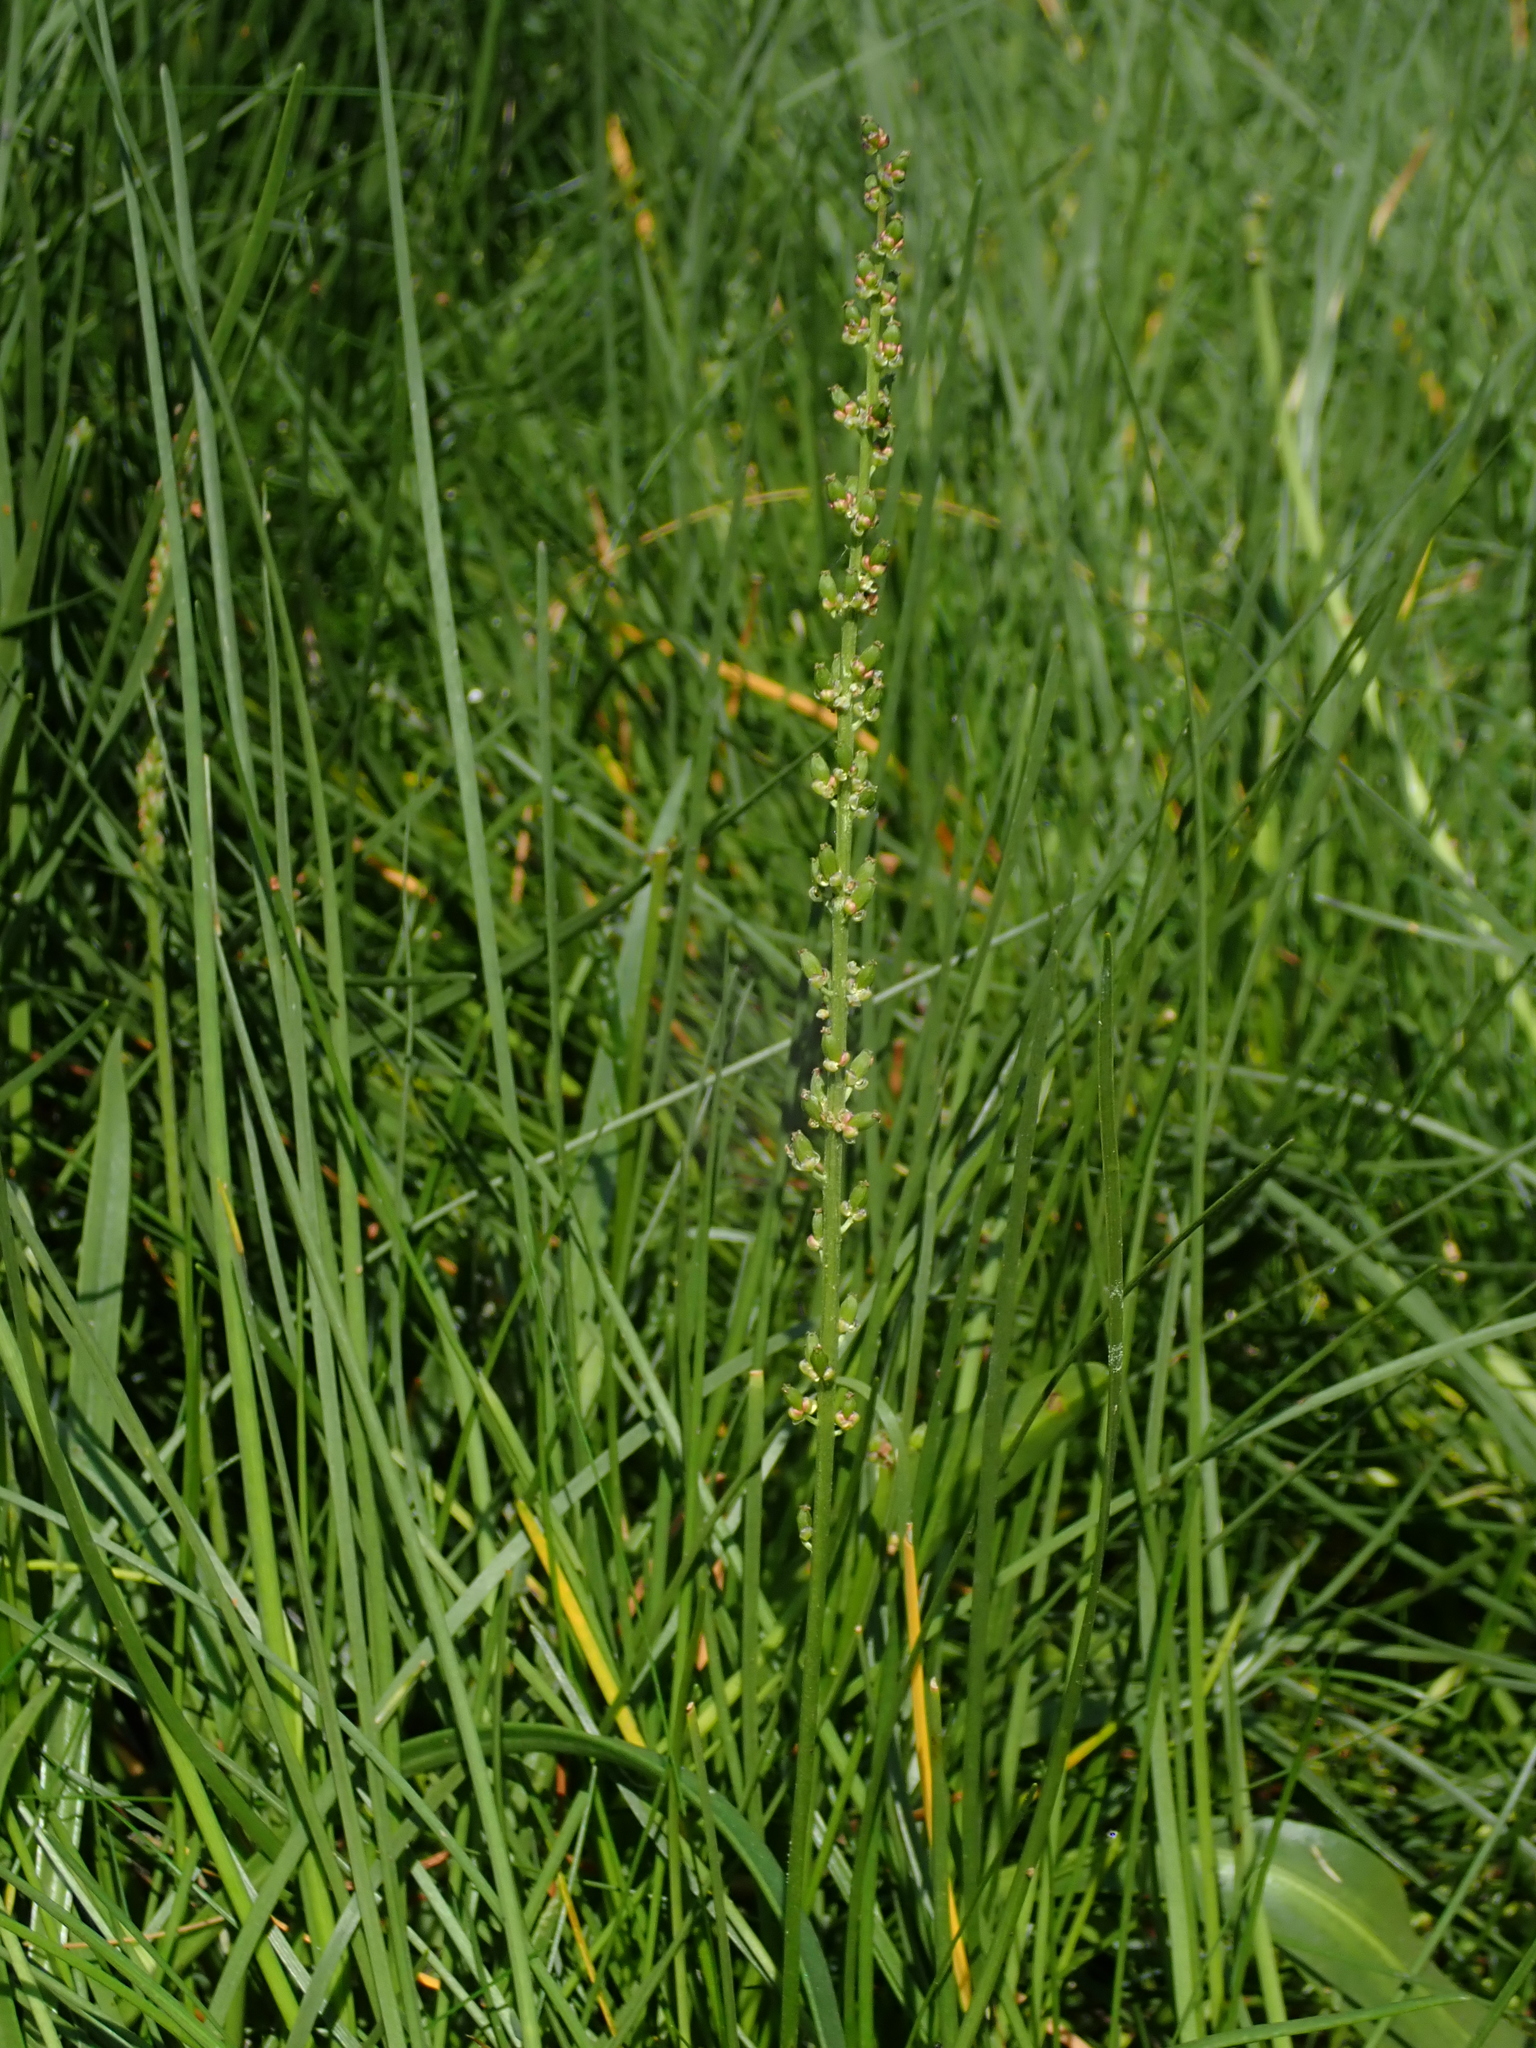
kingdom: Plantae
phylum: Tracheophyta
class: Liliopsida
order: Alismatales
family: Juncaginaceae
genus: Triglochin
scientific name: Triglochin maritima
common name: Sea arrowgrass
